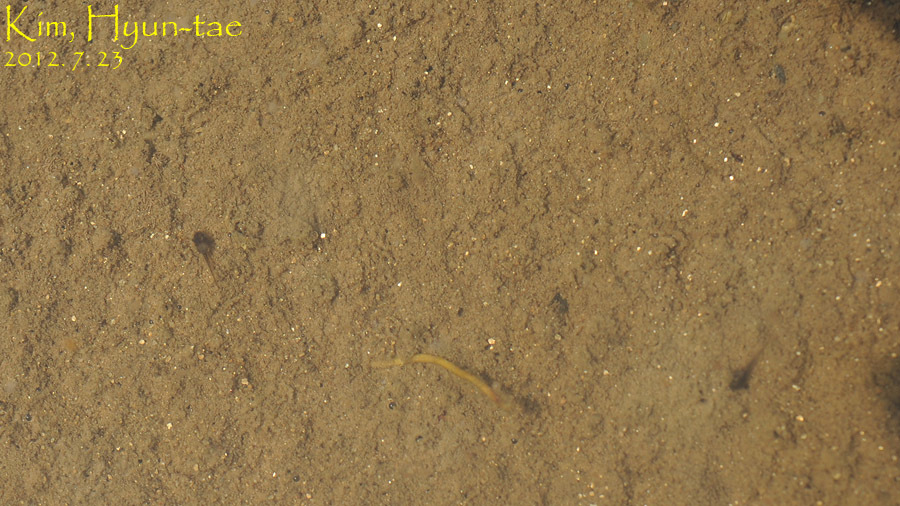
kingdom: Animalia
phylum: Chordata
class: Amphibia
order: Anura
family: Hylidae
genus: Dryophytes
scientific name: Dryophytes japonicus
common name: Japanese treefrog
